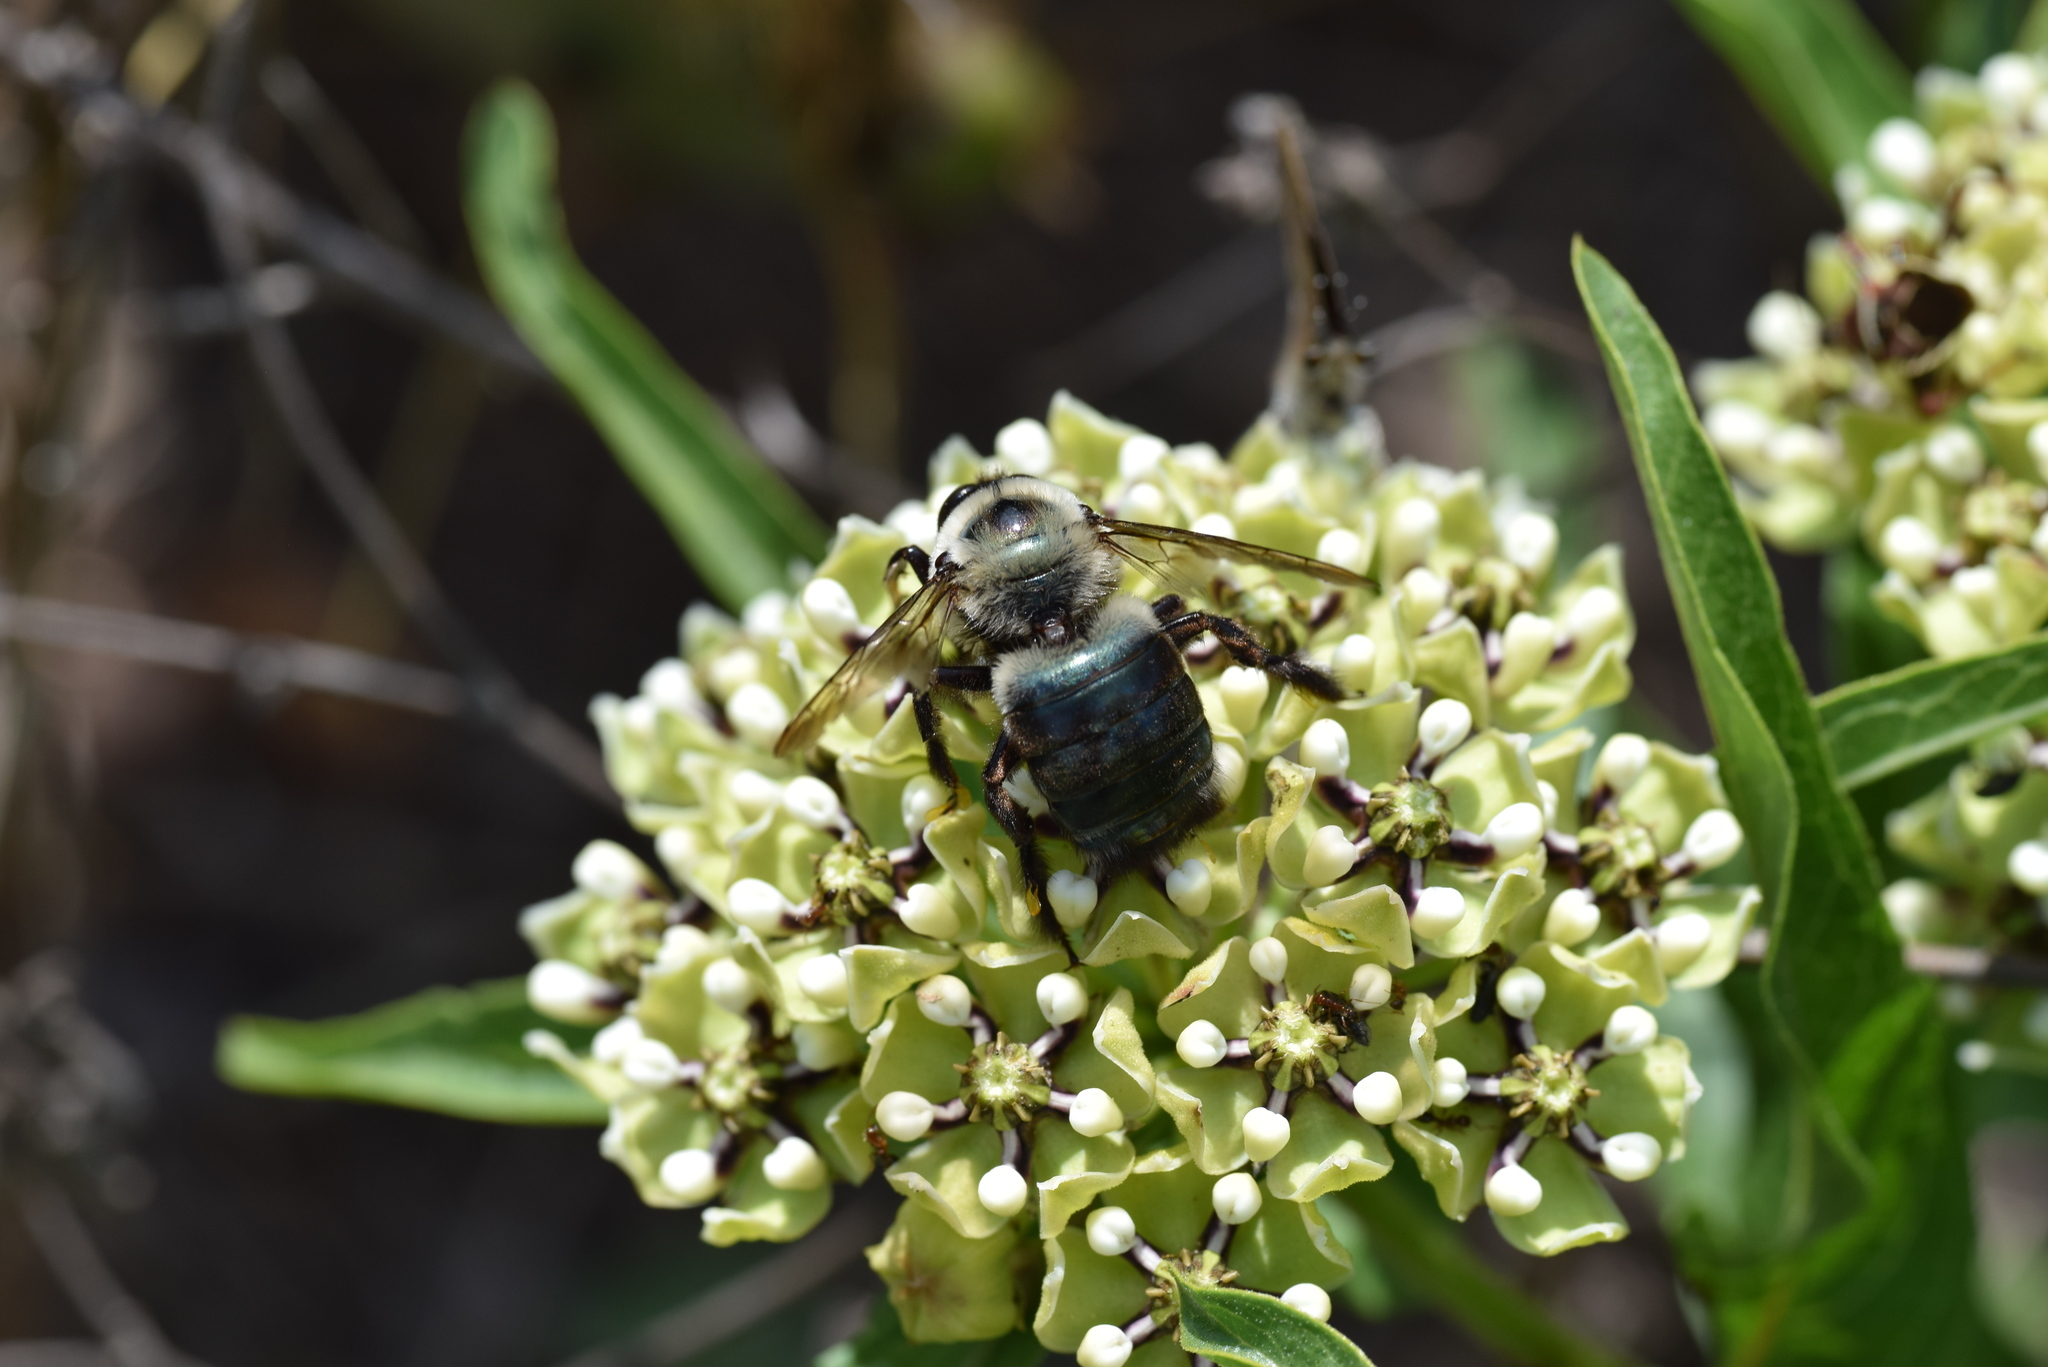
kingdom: Animalia
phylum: Arthropoda
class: Insecta
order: Hymenoptera
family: Apidae
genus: Xylocopa
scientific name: Xylocopa virginica
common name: Carpenter bee
